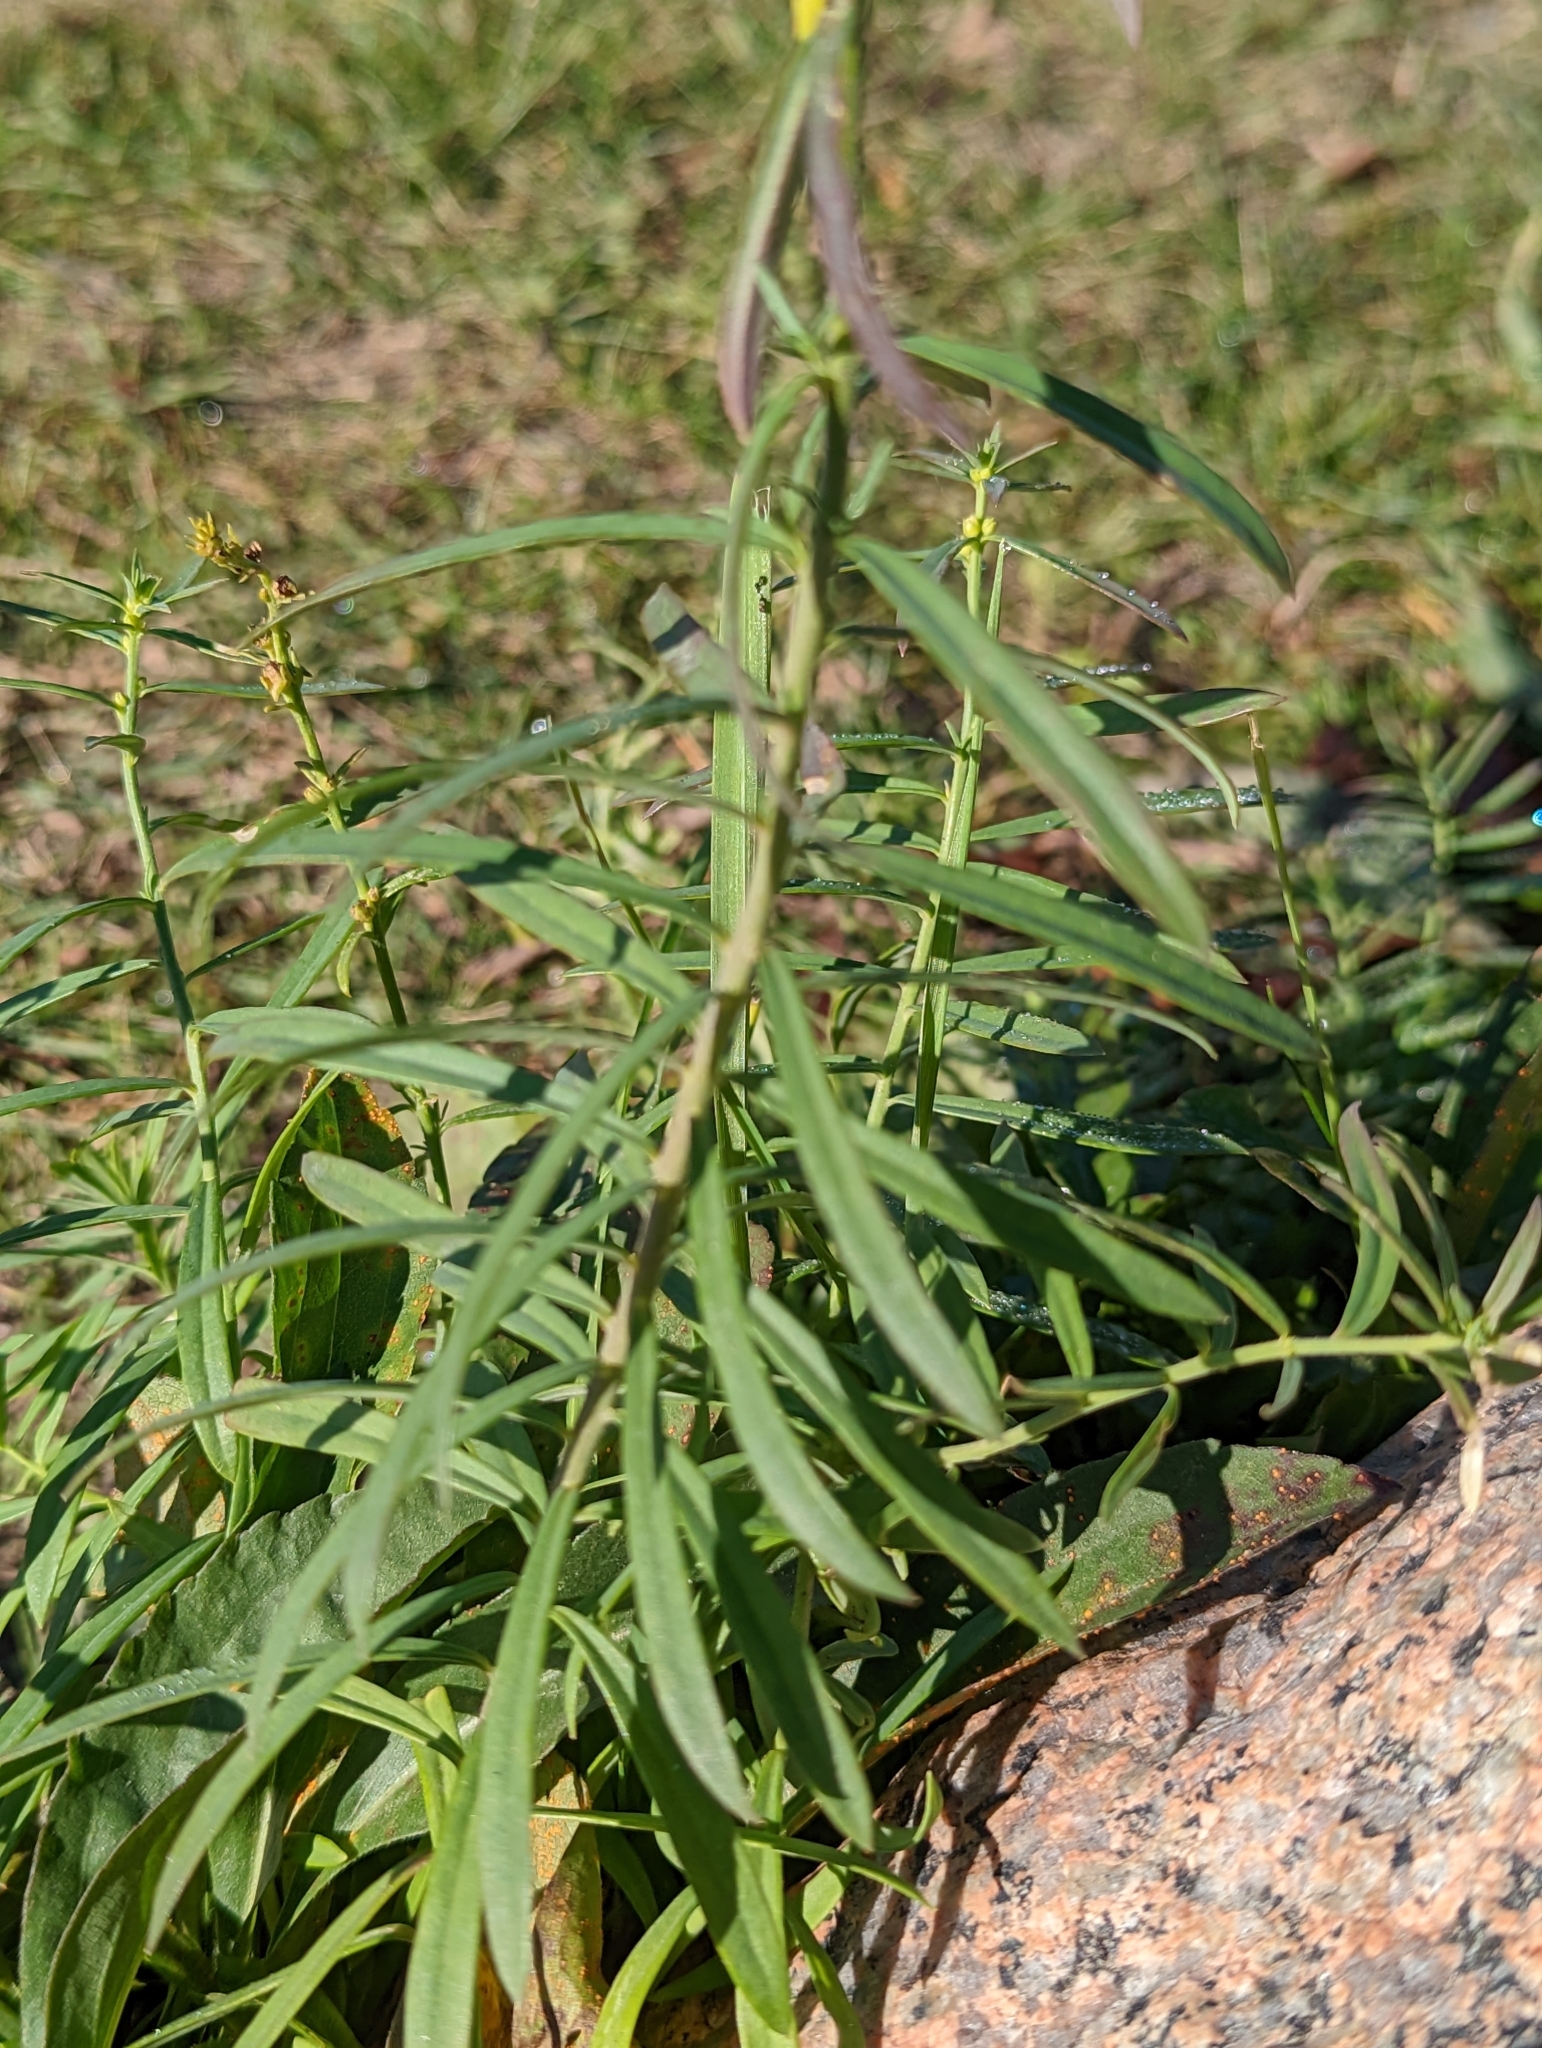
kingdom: Plantae
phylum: Tracheophyta
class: Magnoliopsida
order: Lamiales
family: Plantaginaceae
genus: Linaria
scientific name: Linaria vulgaris
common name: Butter and eggs
